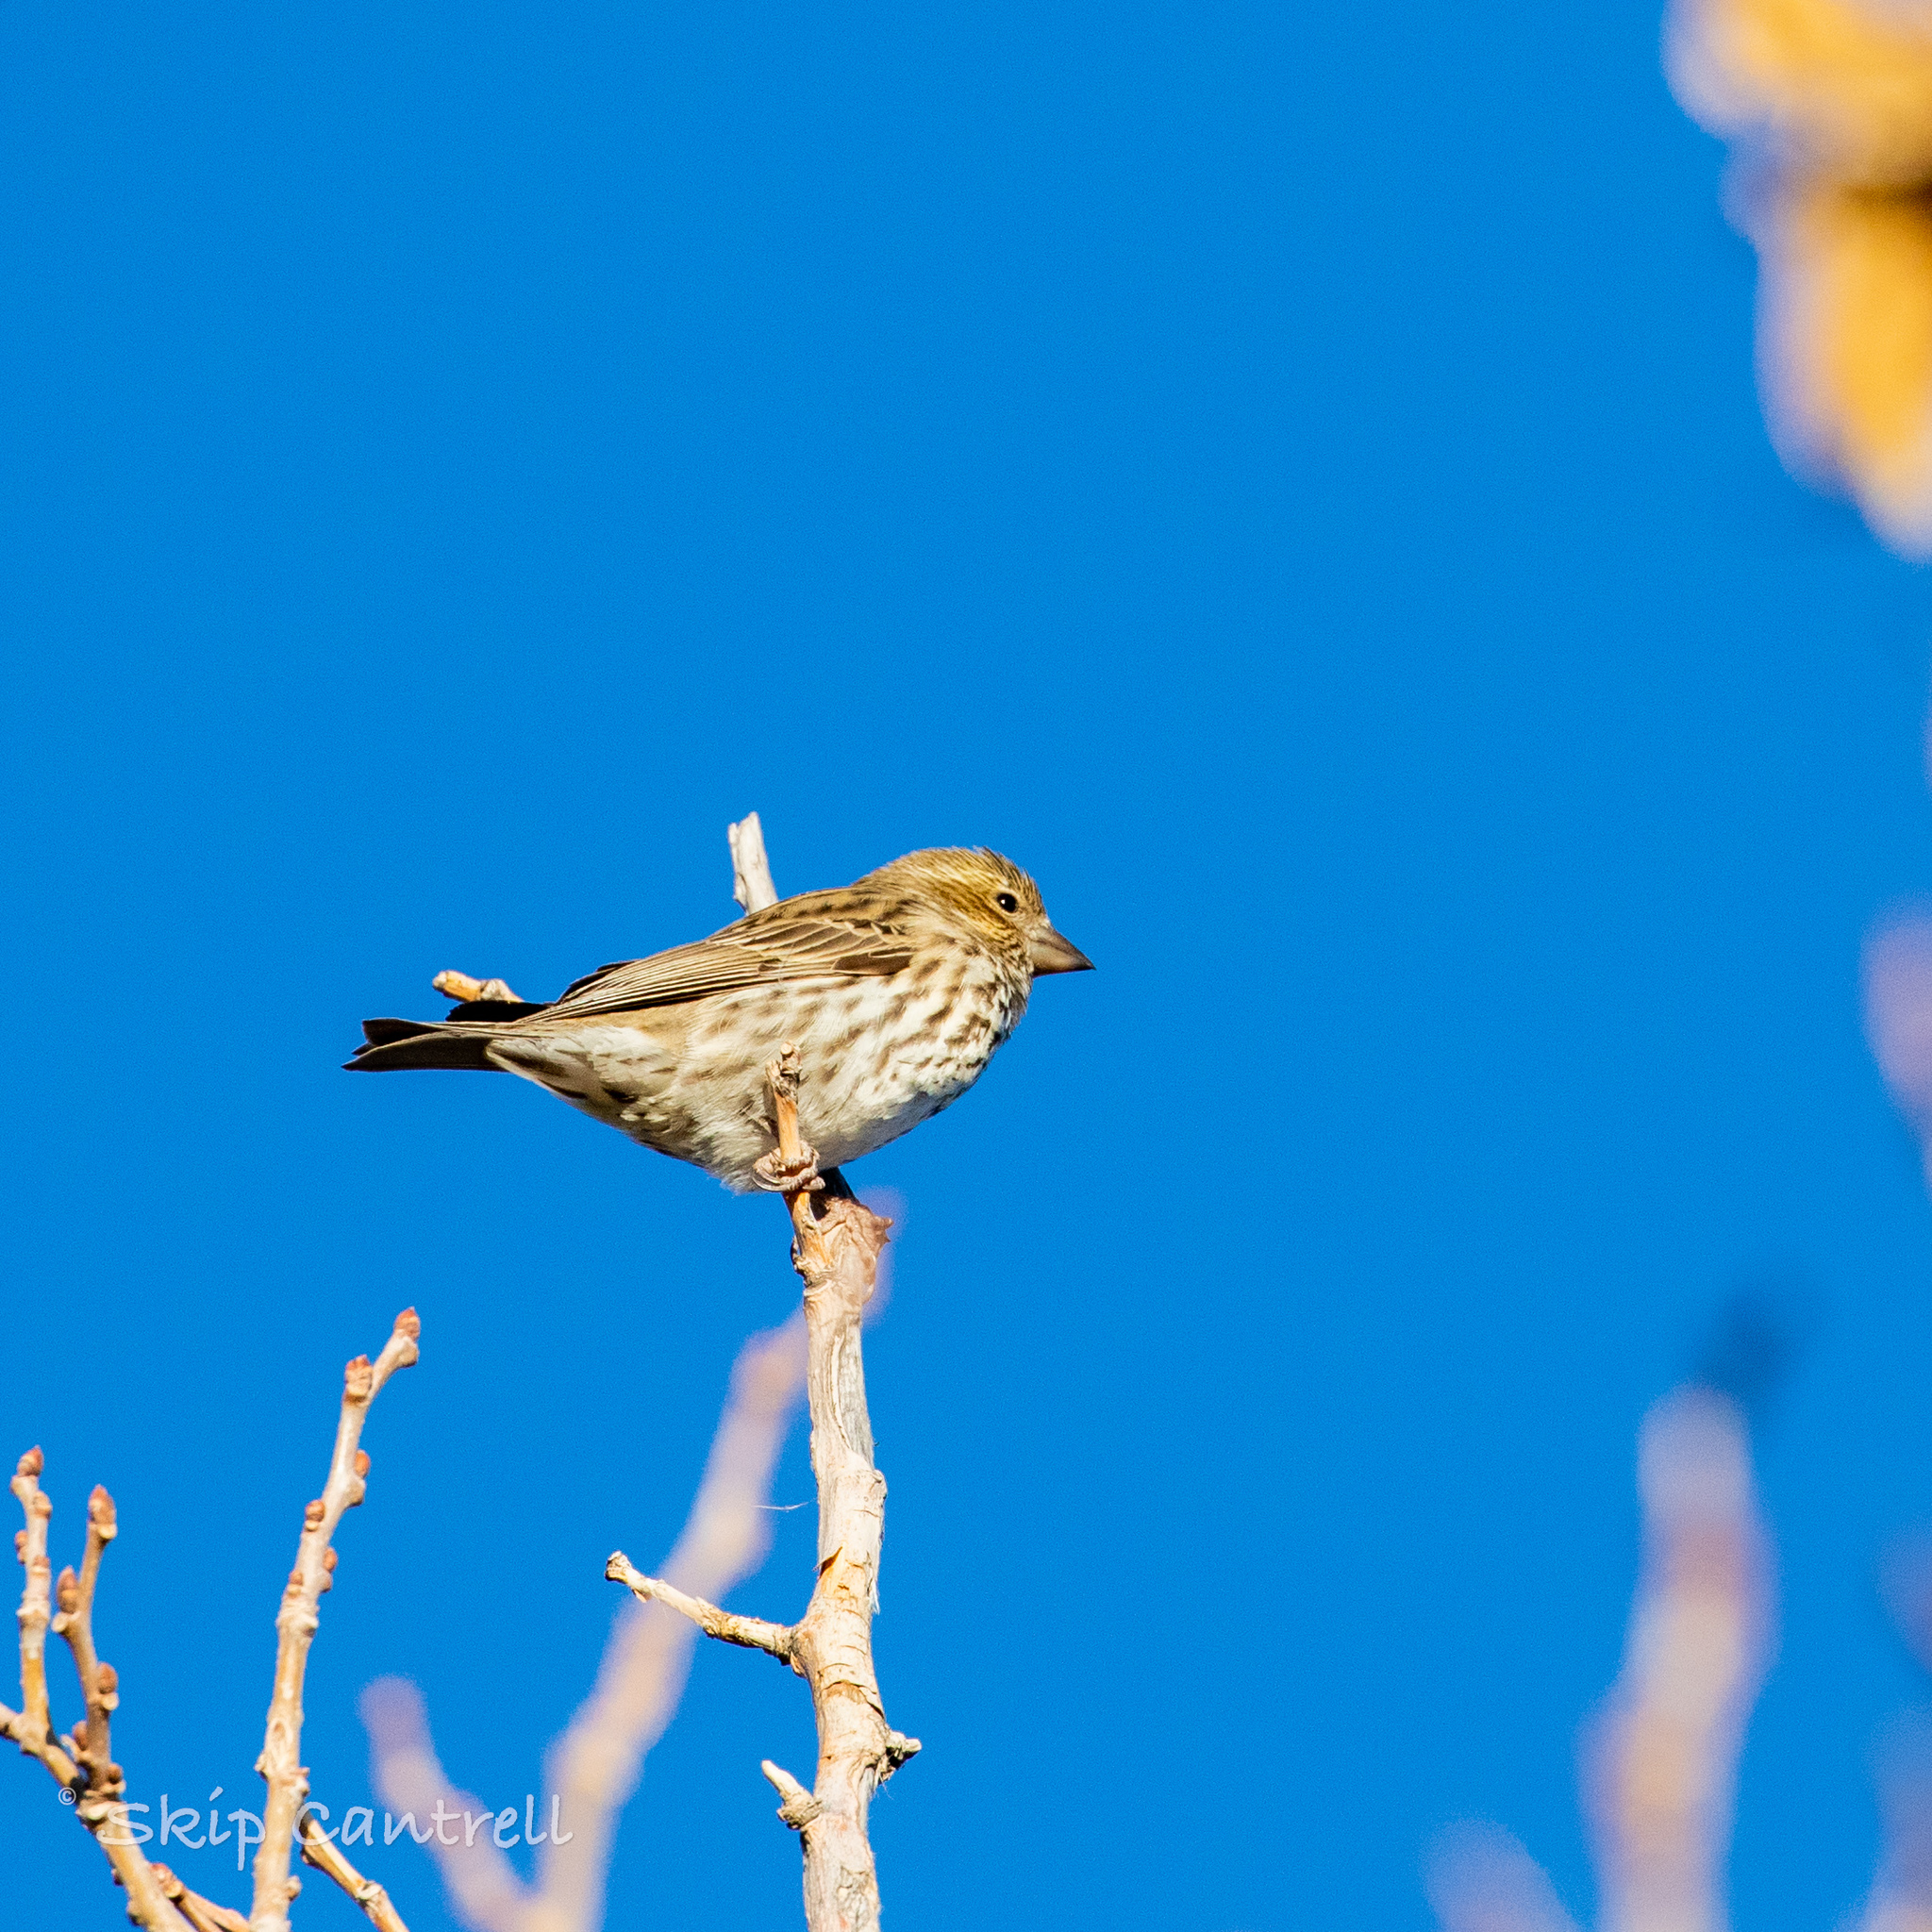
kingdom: Animalia
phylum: Chordata
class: Aves
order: Passeriformes
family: Fringillidae
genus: Haemorhous
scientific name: Haemorhous cassinii
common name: Cassin's finch
